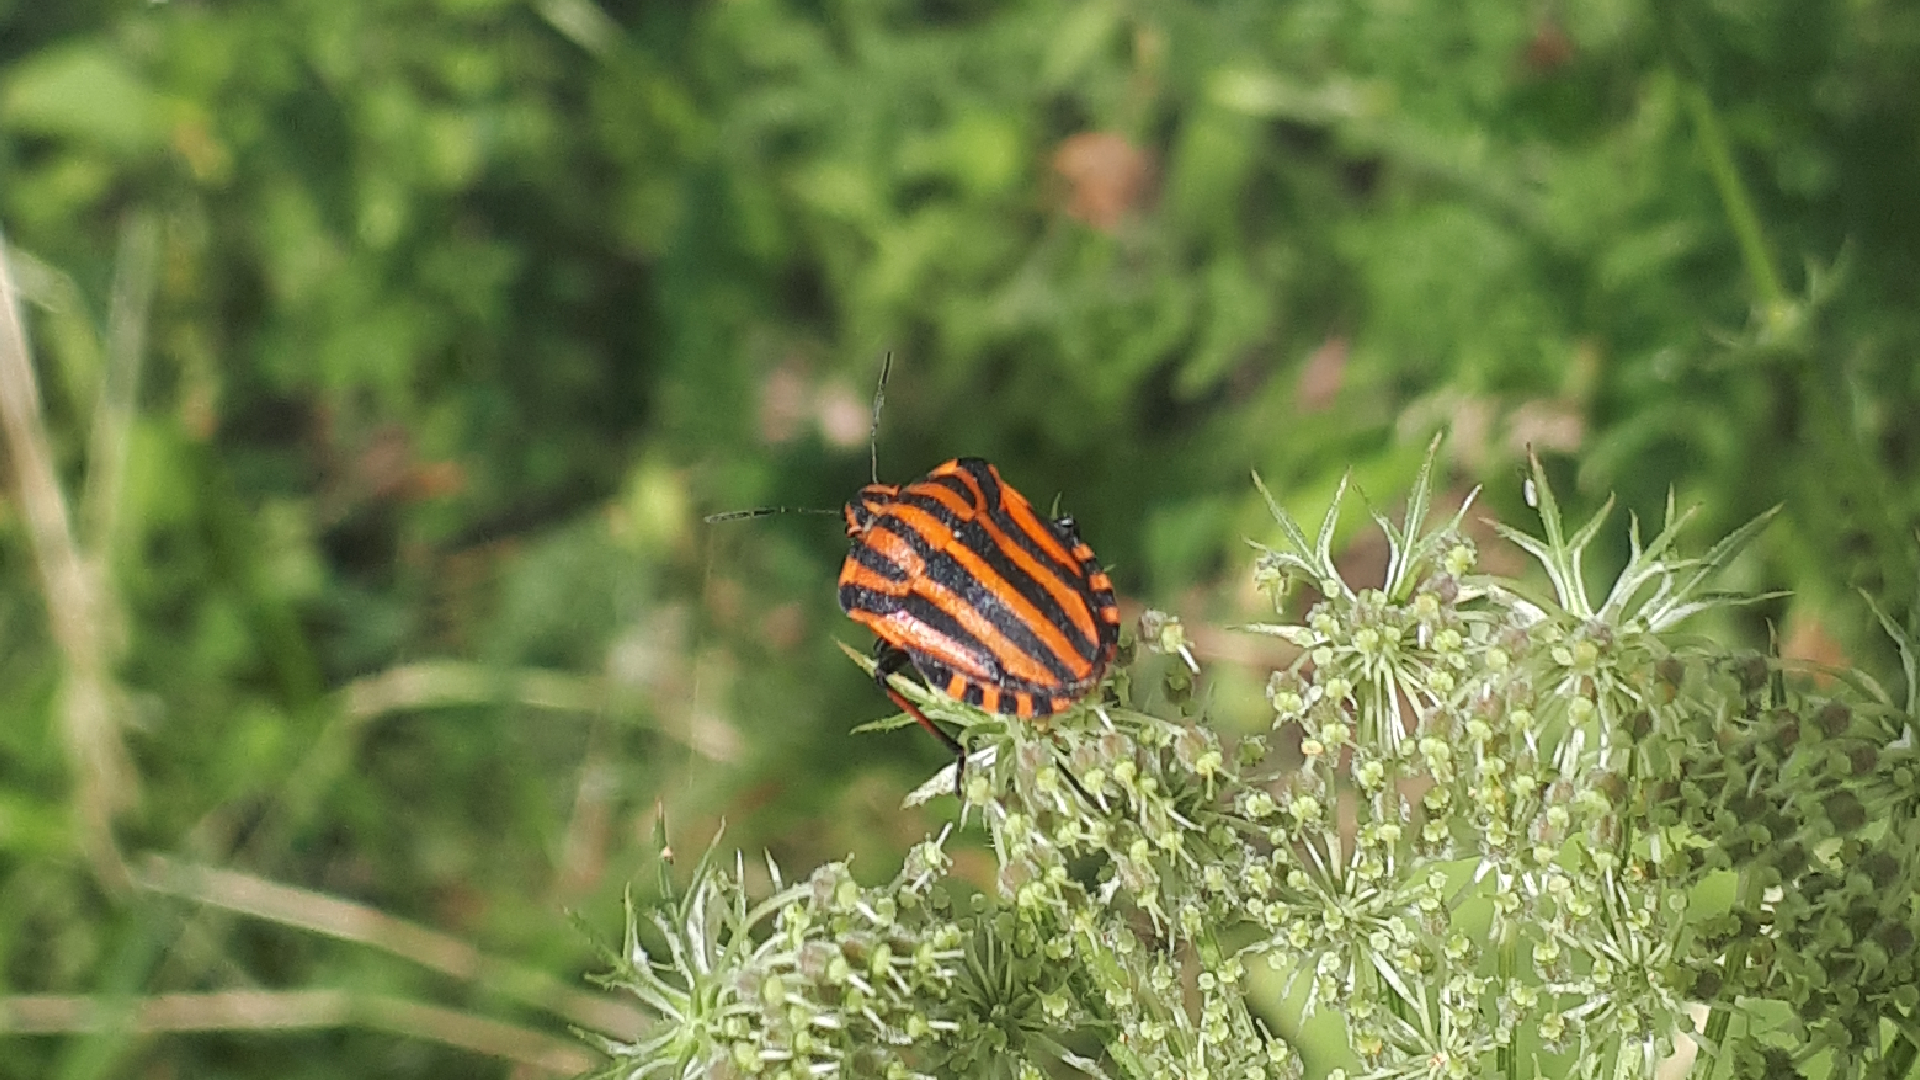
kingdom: Animalia
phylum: Arthropoda
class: Insecta
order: Hemiptera
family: Pentatomidae
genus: Graphosoma
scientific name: Graphosoma italicum
